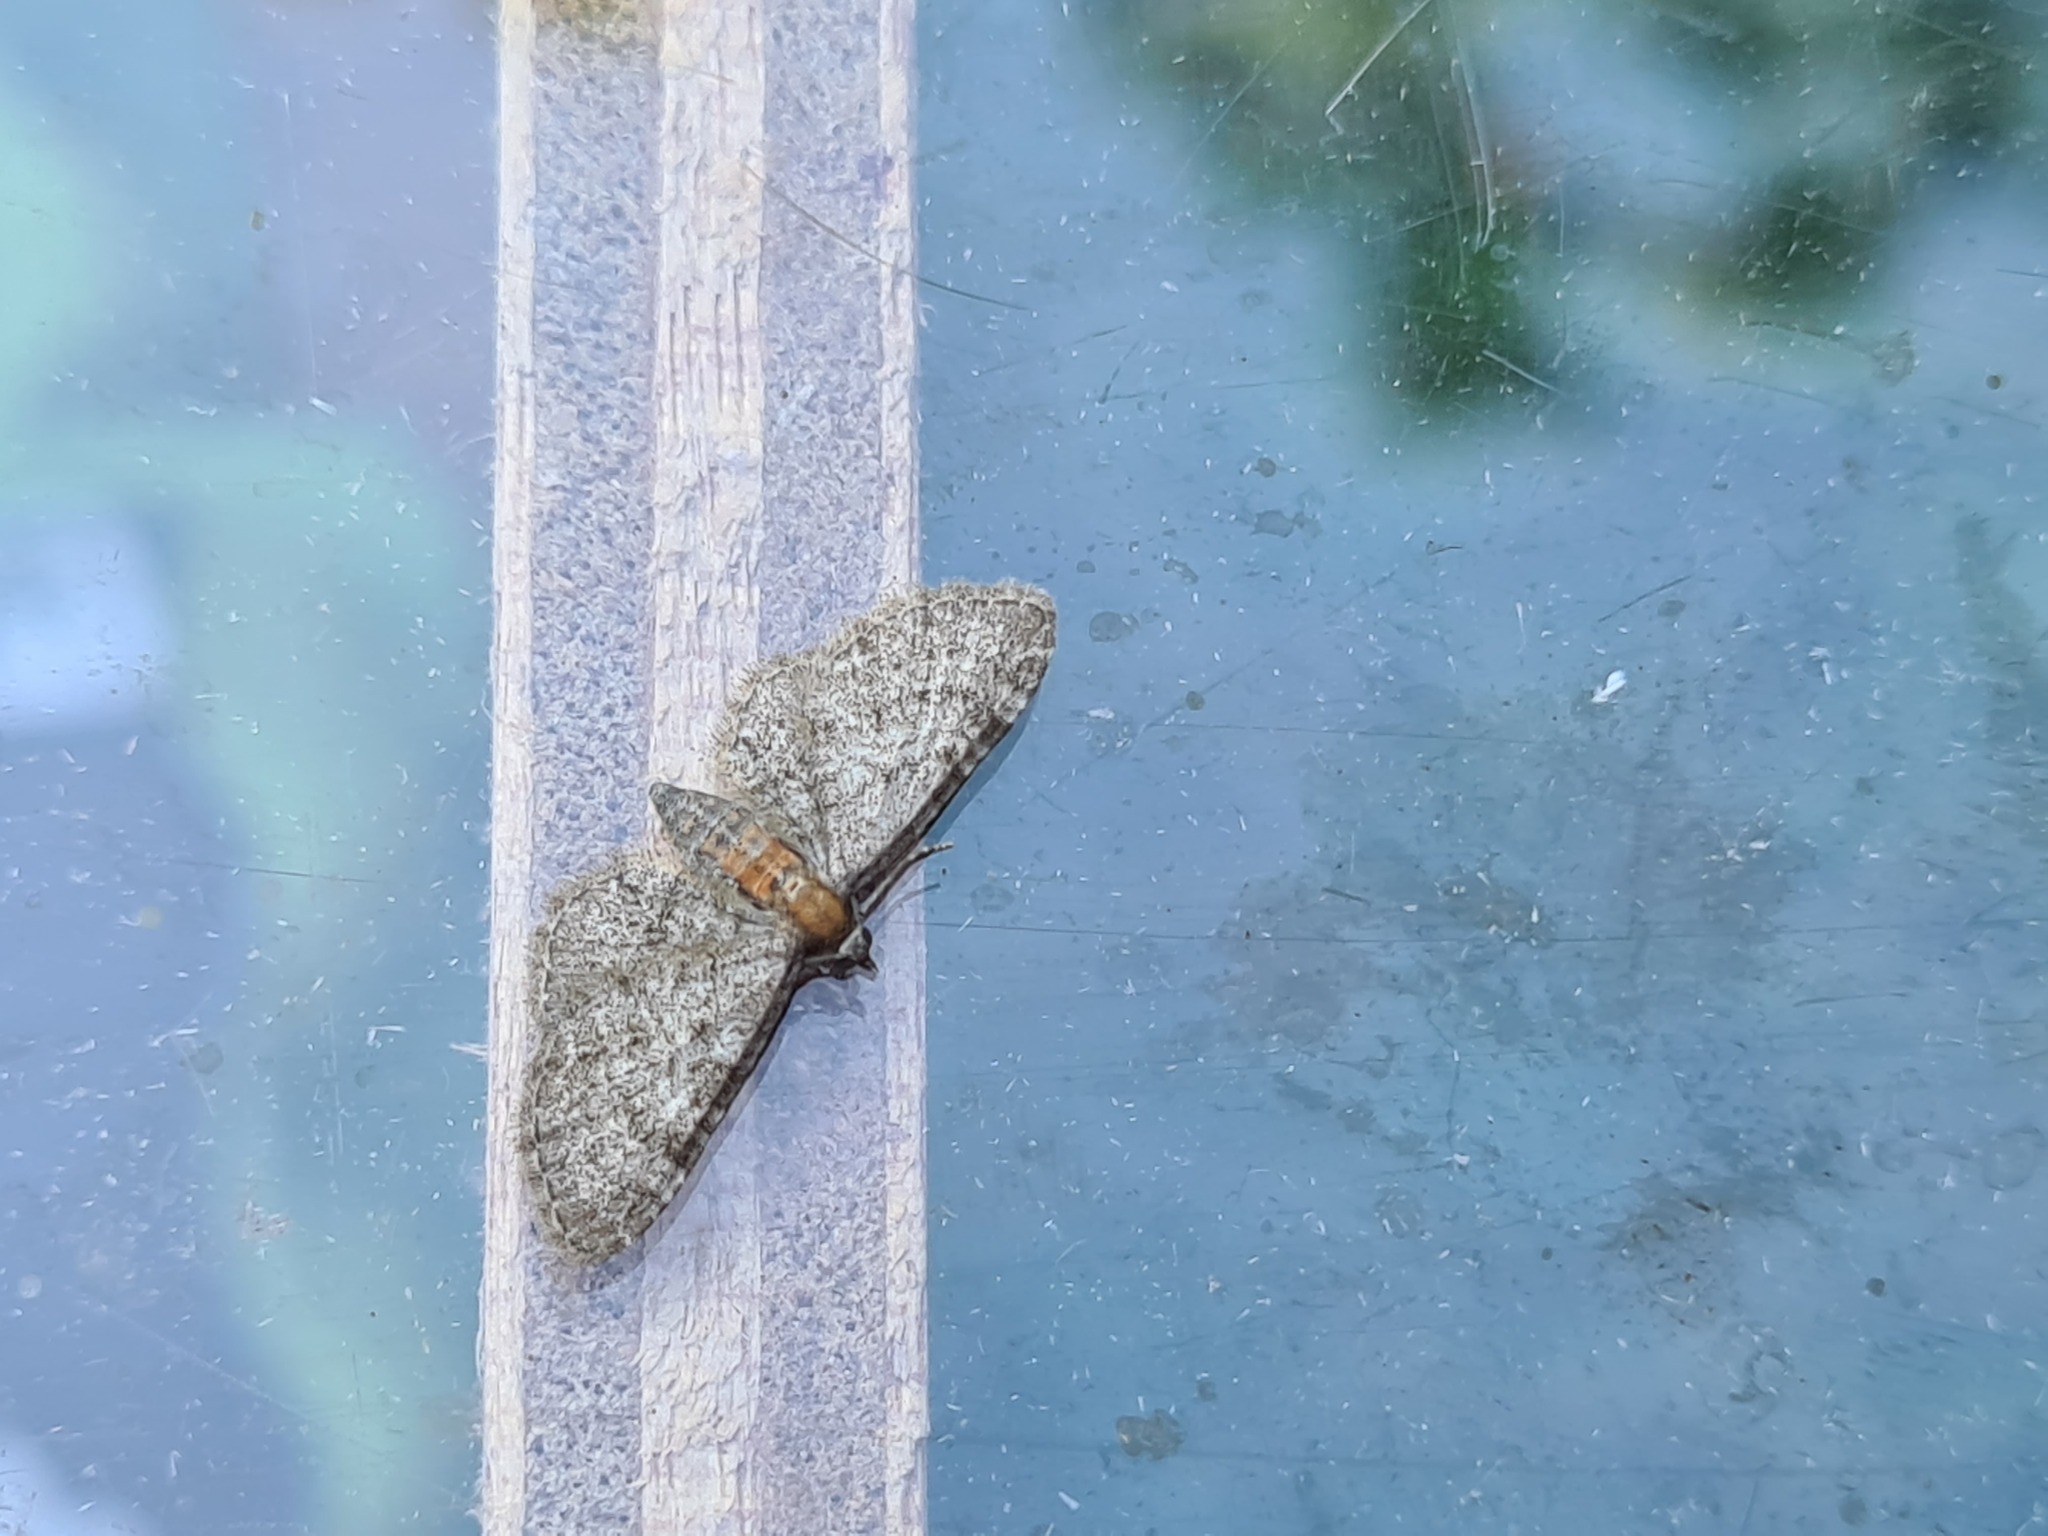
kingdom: Animalia
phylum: Arthropoda
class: Insecta
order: Lepidoptera
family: Geometridae
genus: Eupithecia
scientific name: Eupithecia haworthiata
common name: Haworth's pug
